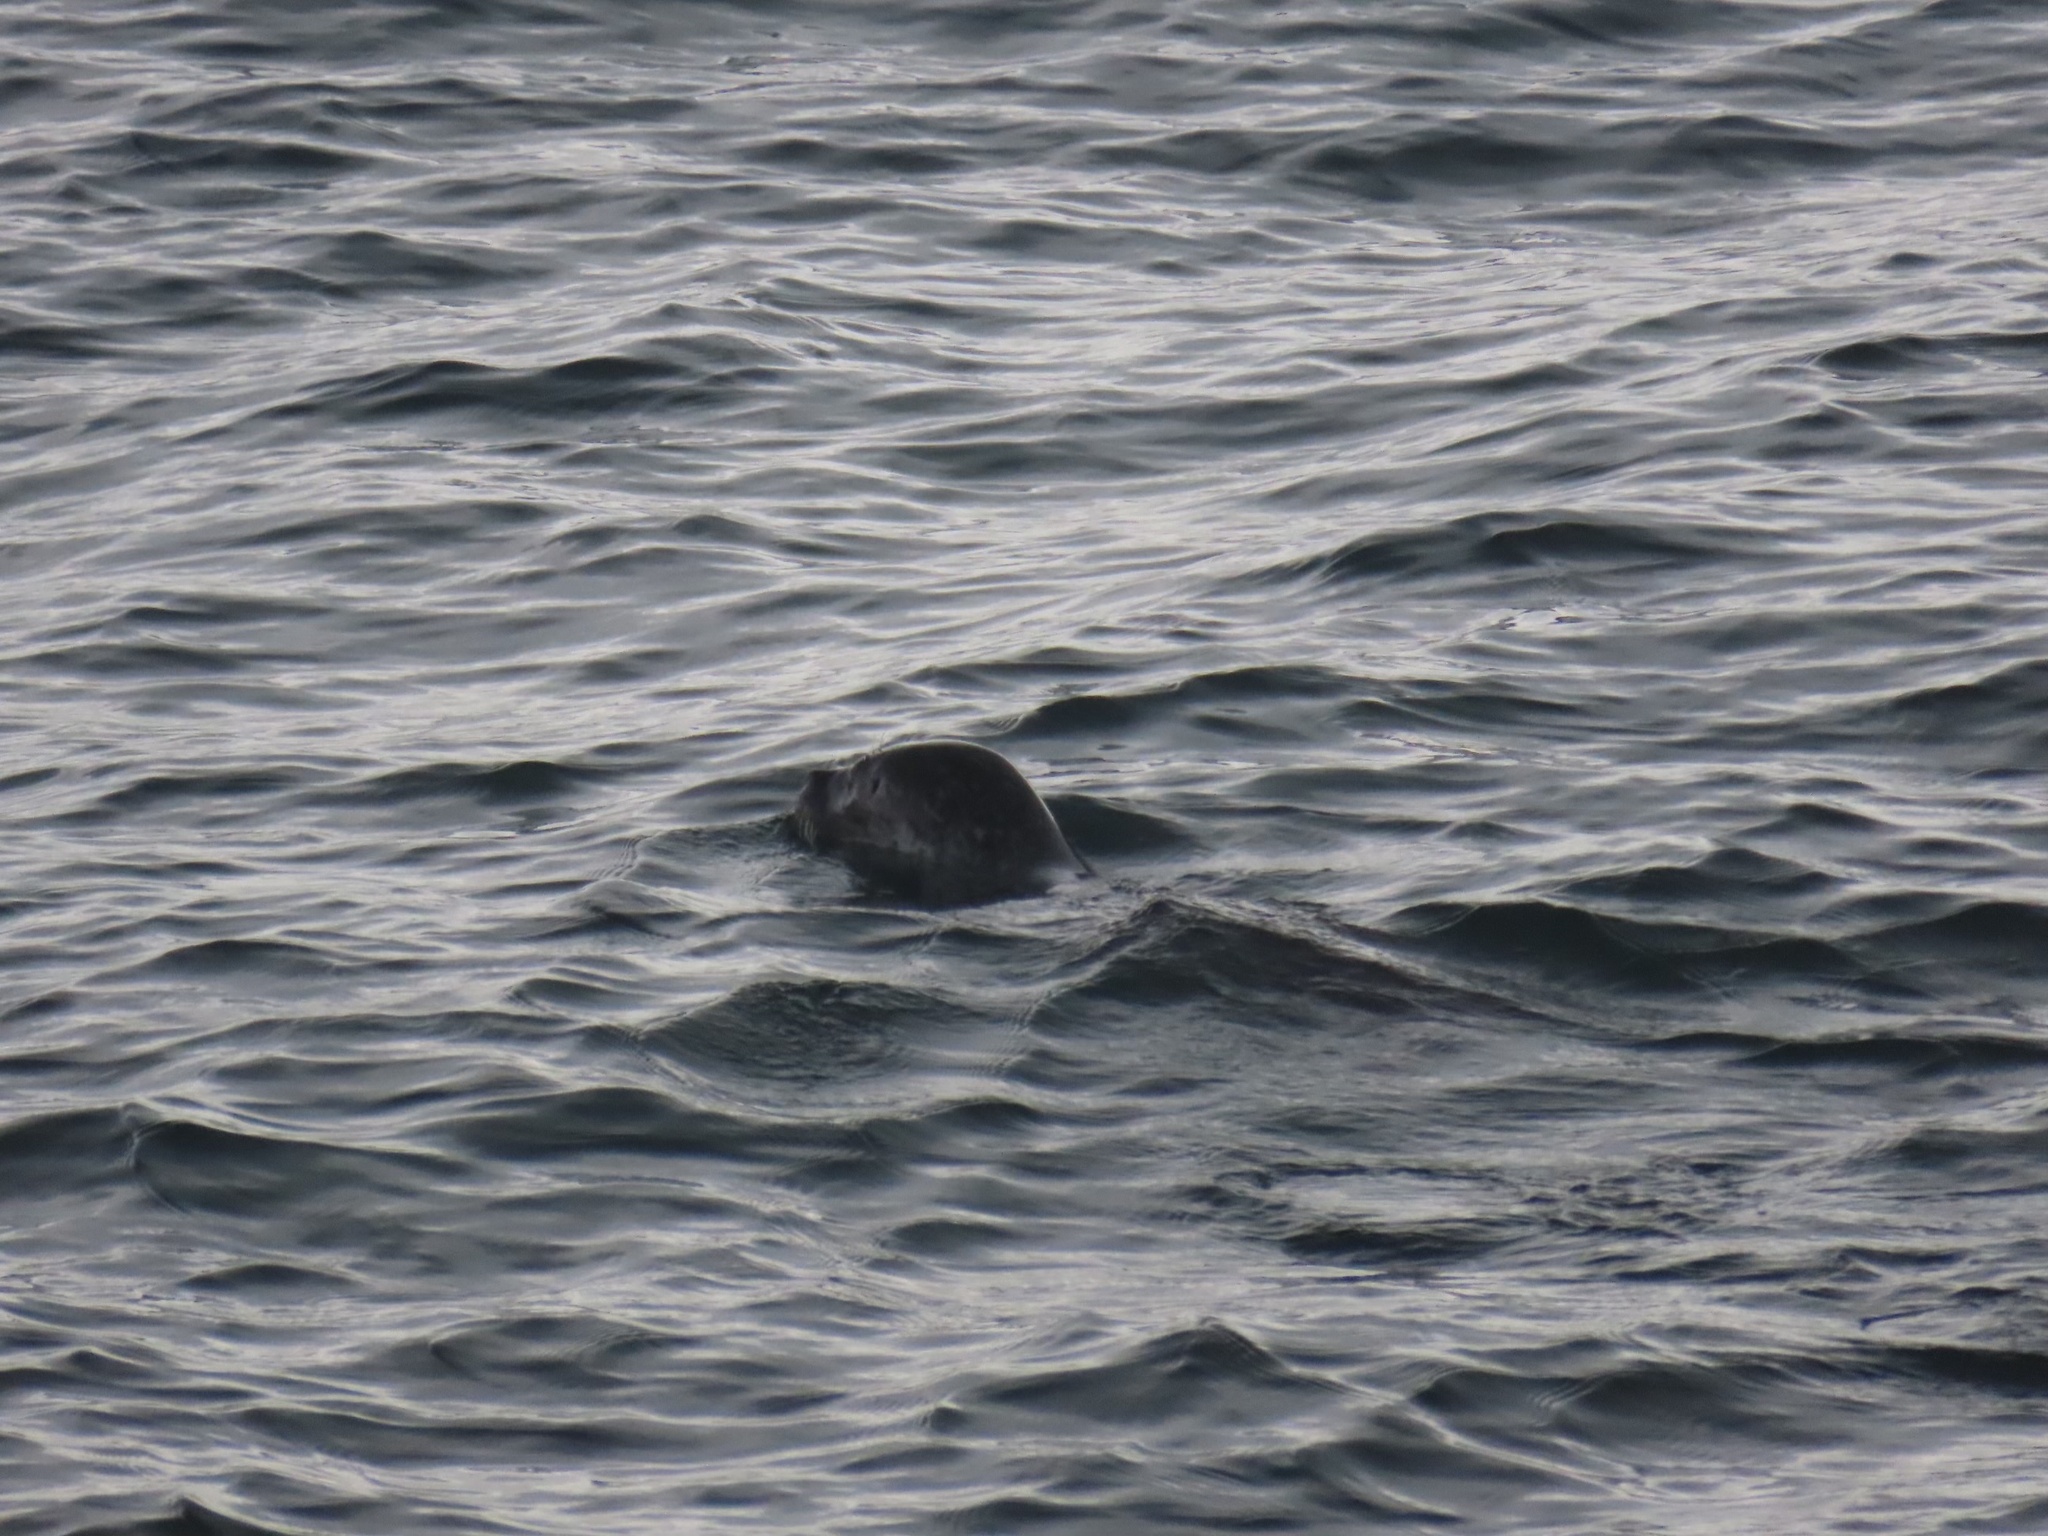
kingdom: Animalia
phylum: Chordata
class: Mammalia
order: Carnivora
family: Phocidae
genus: Phoca
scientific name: Phoca vitulina
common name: Harbor seal
